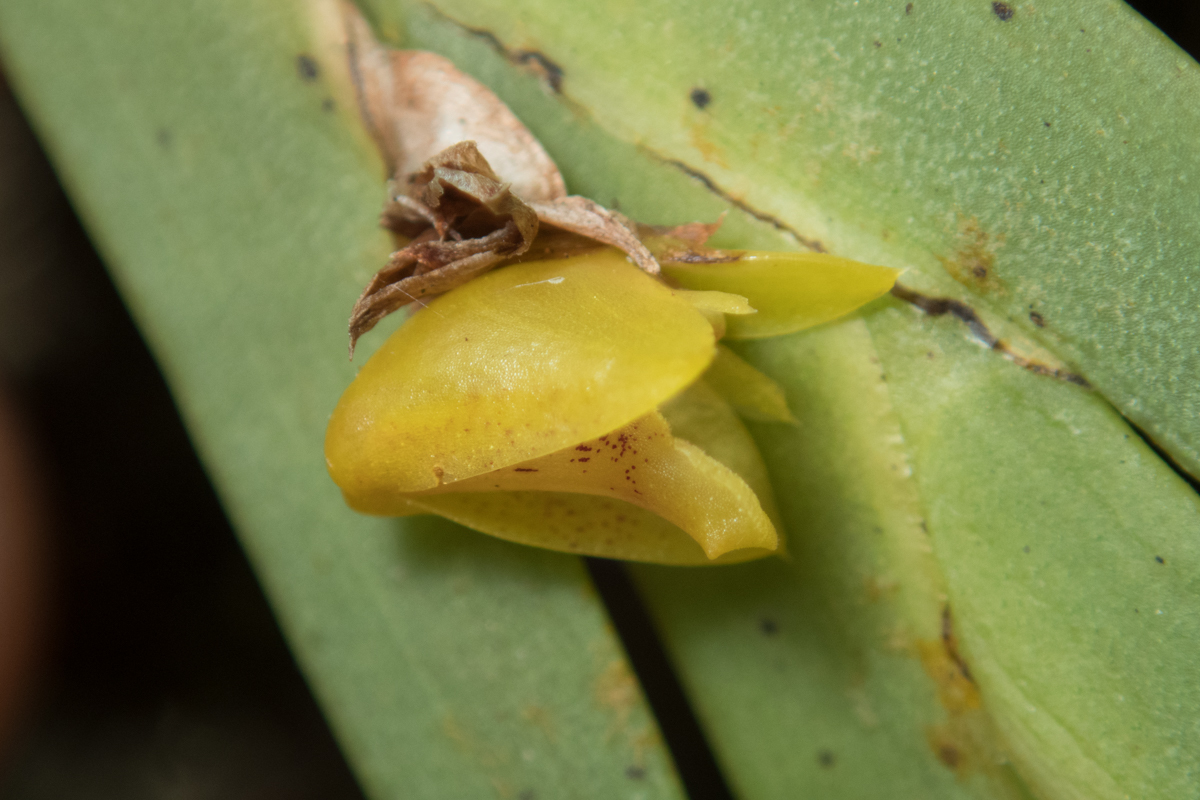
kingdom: Plantae
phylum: Tracheophyta
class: Liliopsida
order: Asparagales
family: Orchidaceae
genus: Oxystophyllum
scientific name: Oxystophyllum carnosum
